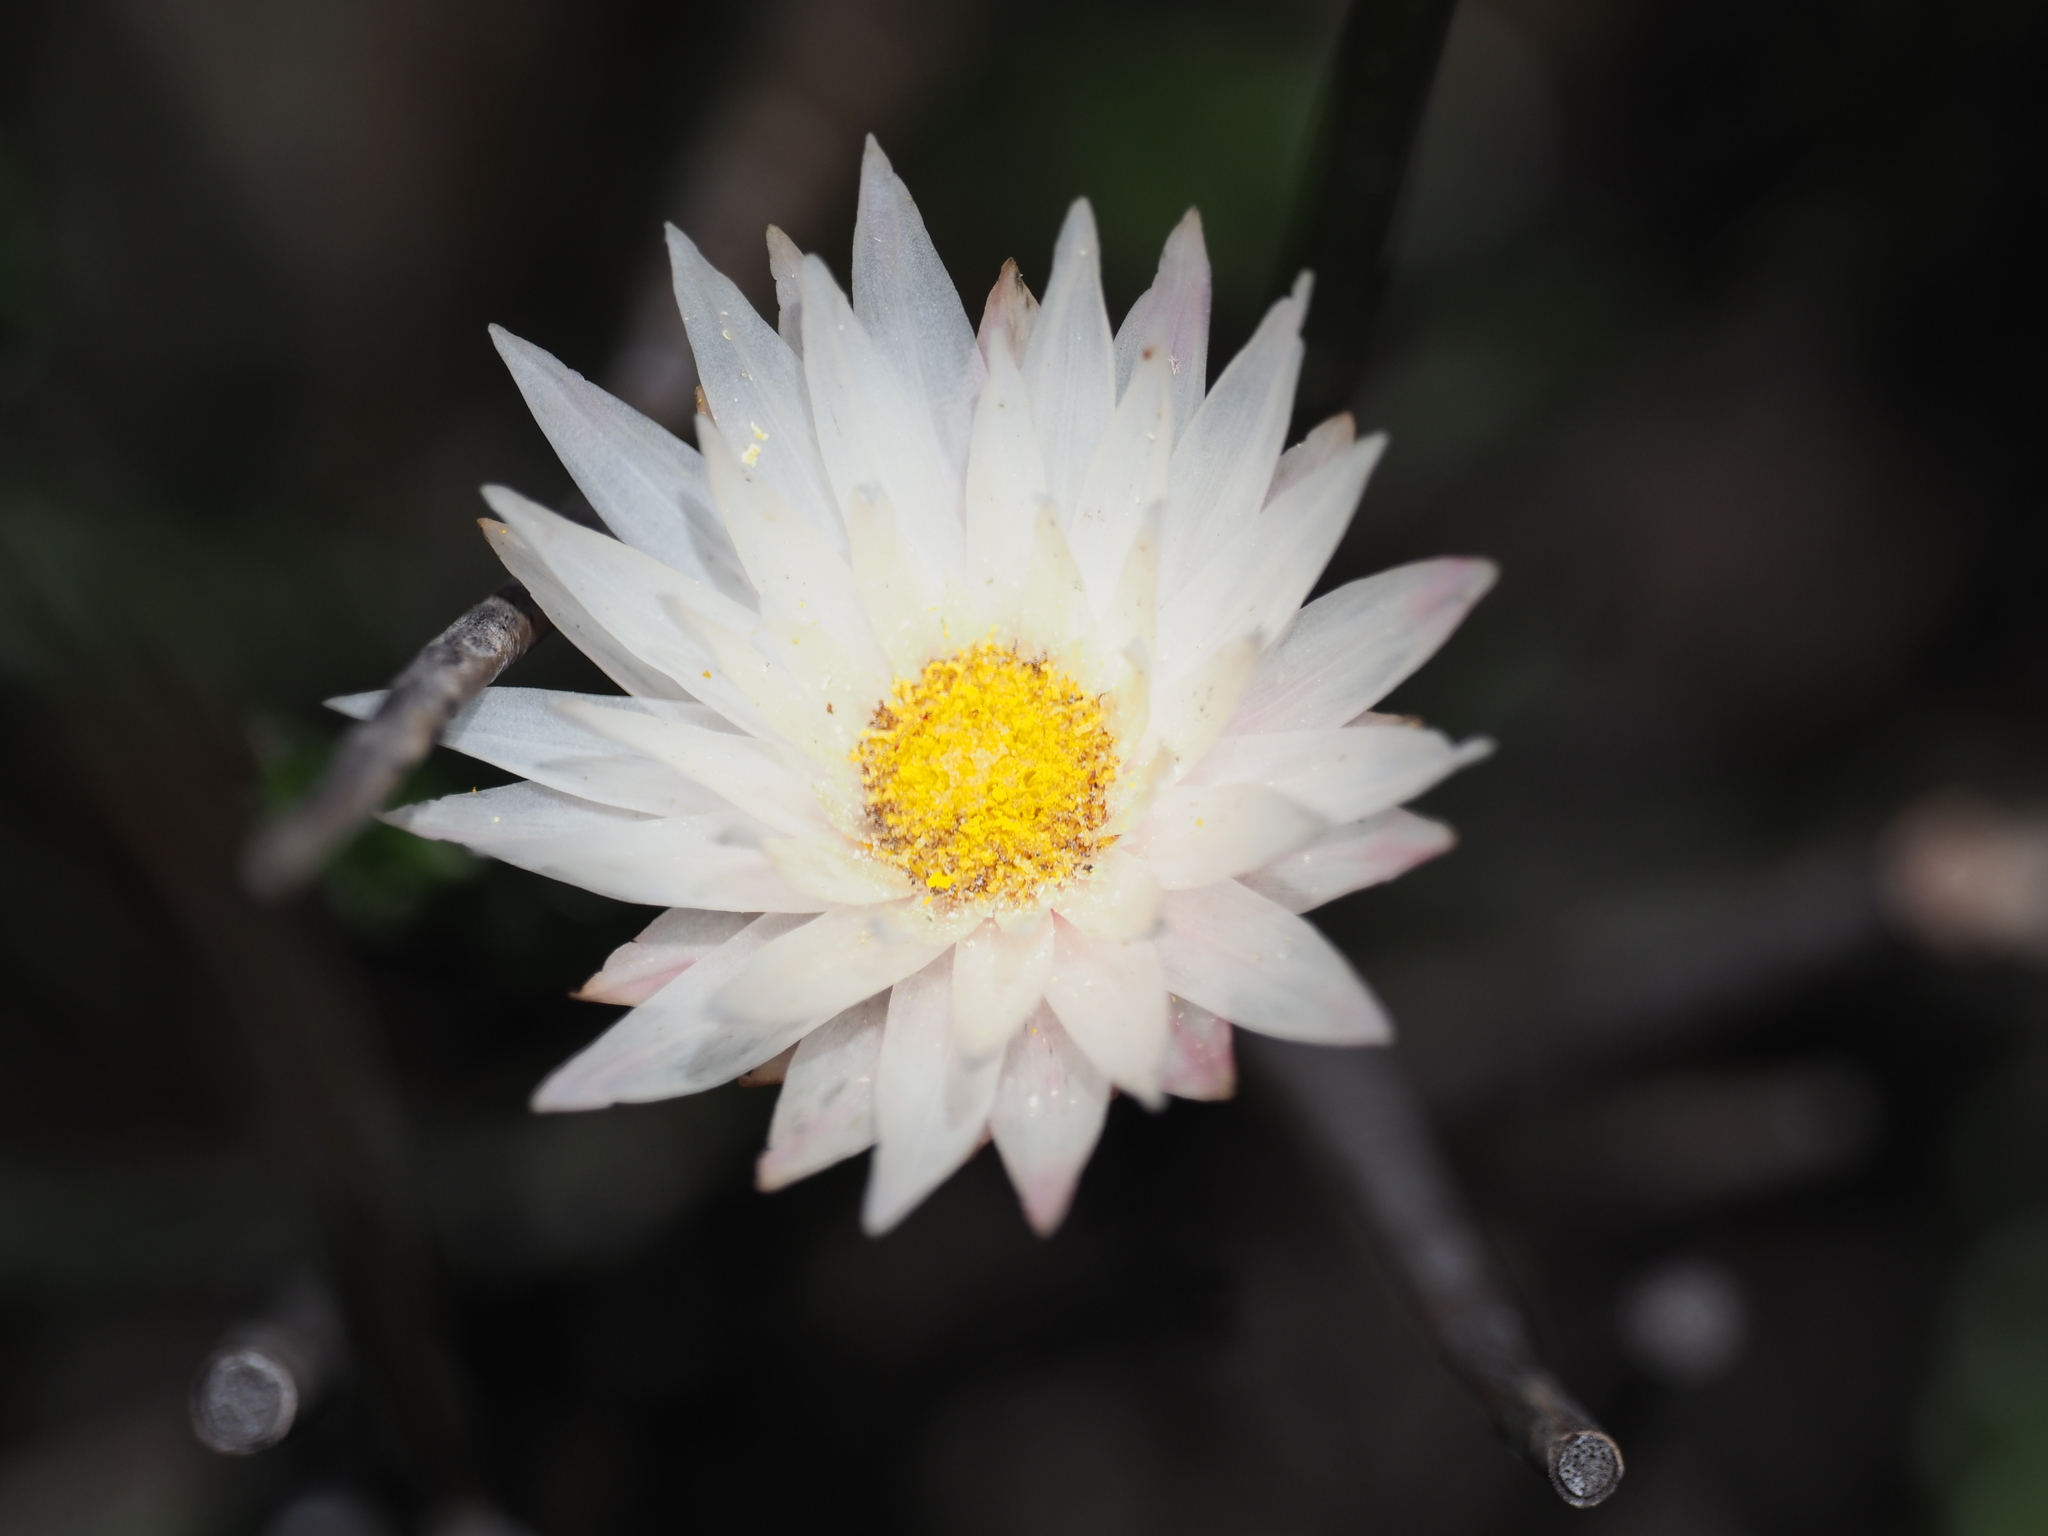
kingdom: Plantae
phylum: Tracheophyta
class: Magnoliopsida
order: Asterales
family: Asteraceae
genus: Edmondia
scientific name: Edmondia pinifolia
